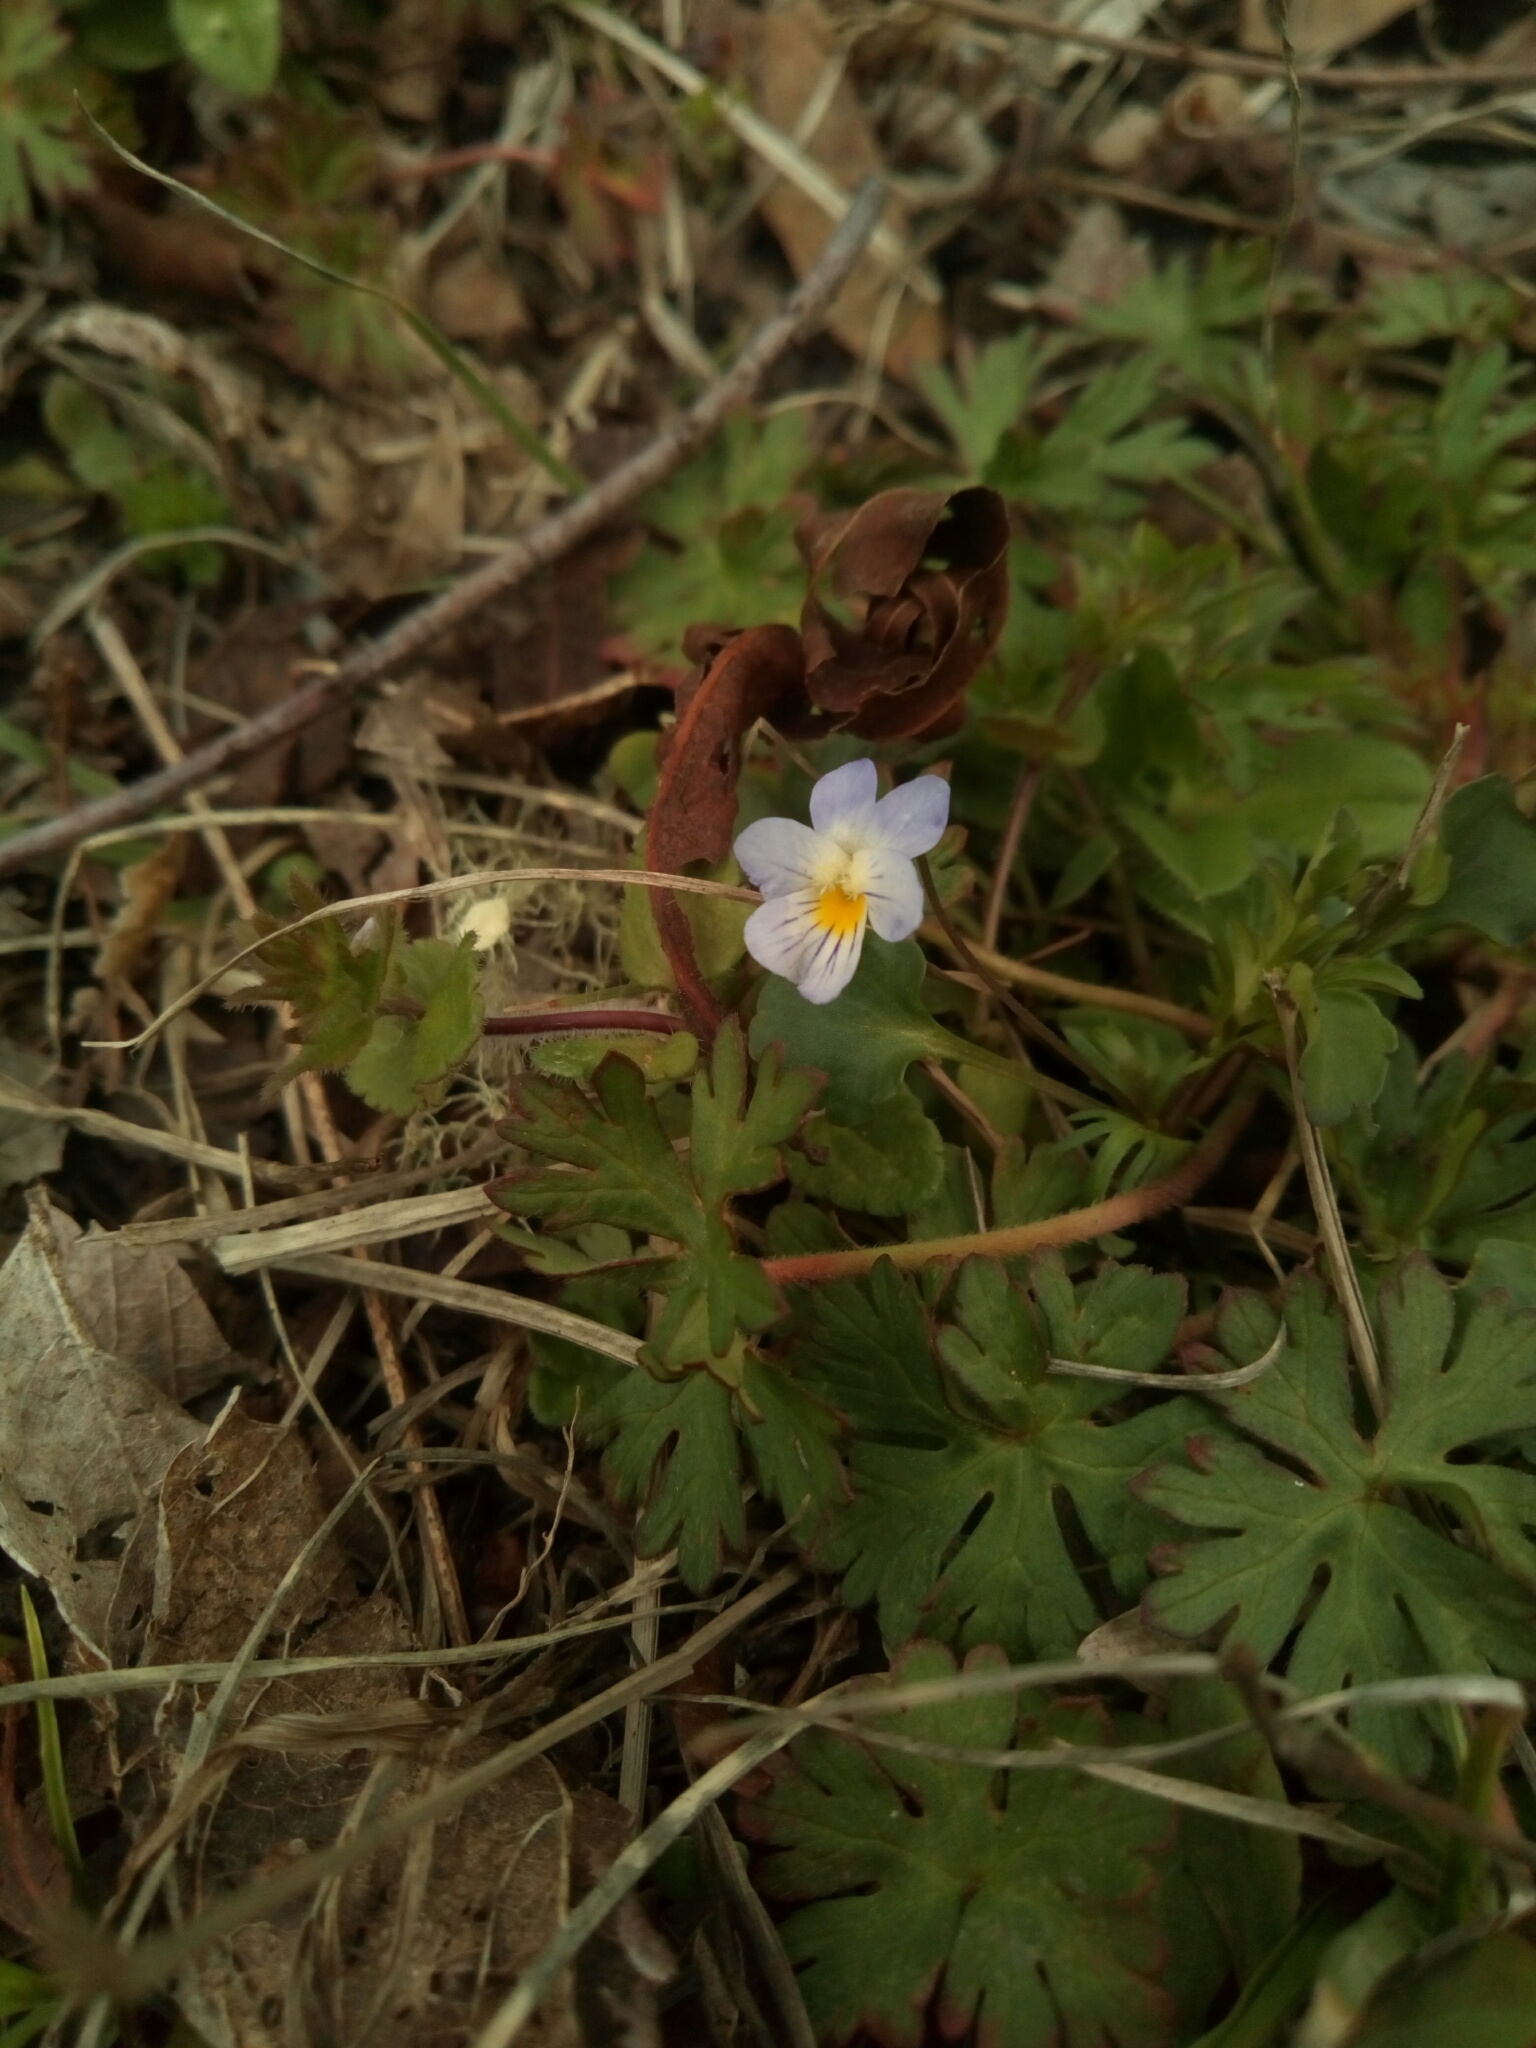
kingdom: Plantae
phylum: Tracheophyta
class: Magnoliopsida
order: Malpighiales
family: Violaceae
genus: Viola
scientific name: Viola rafinesquei
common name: American field pansy
